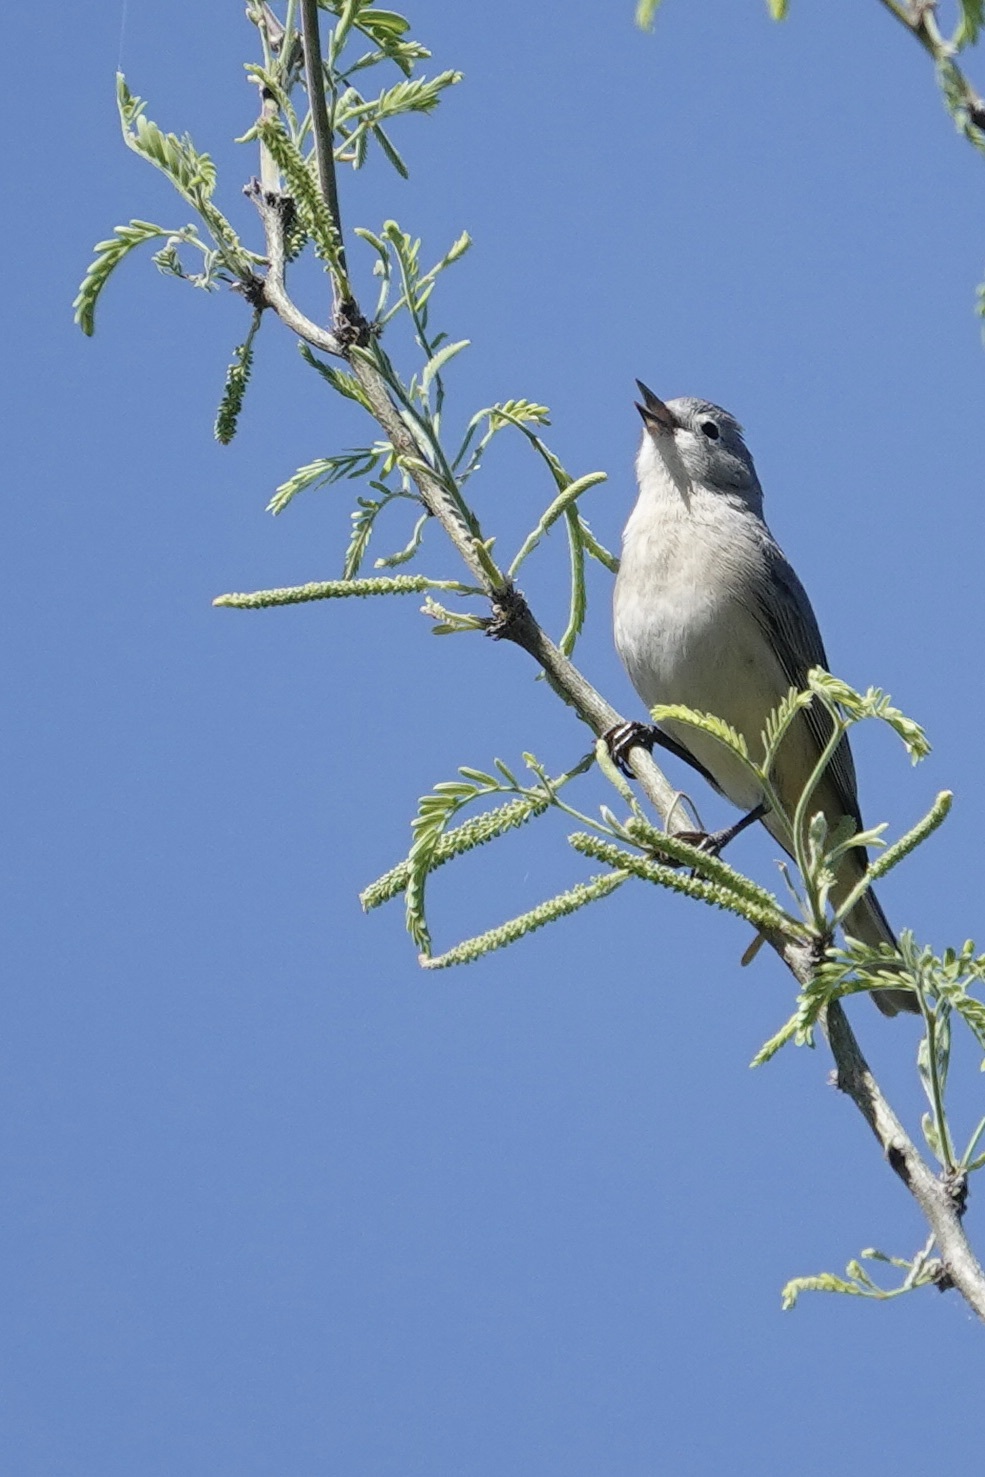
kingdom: Animalia
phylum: Chordata
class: Aves
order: Passeriformes
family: Parulidae
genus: Leiothlypis
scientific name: Leiothlypis luciae
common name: Lucy's warbler
